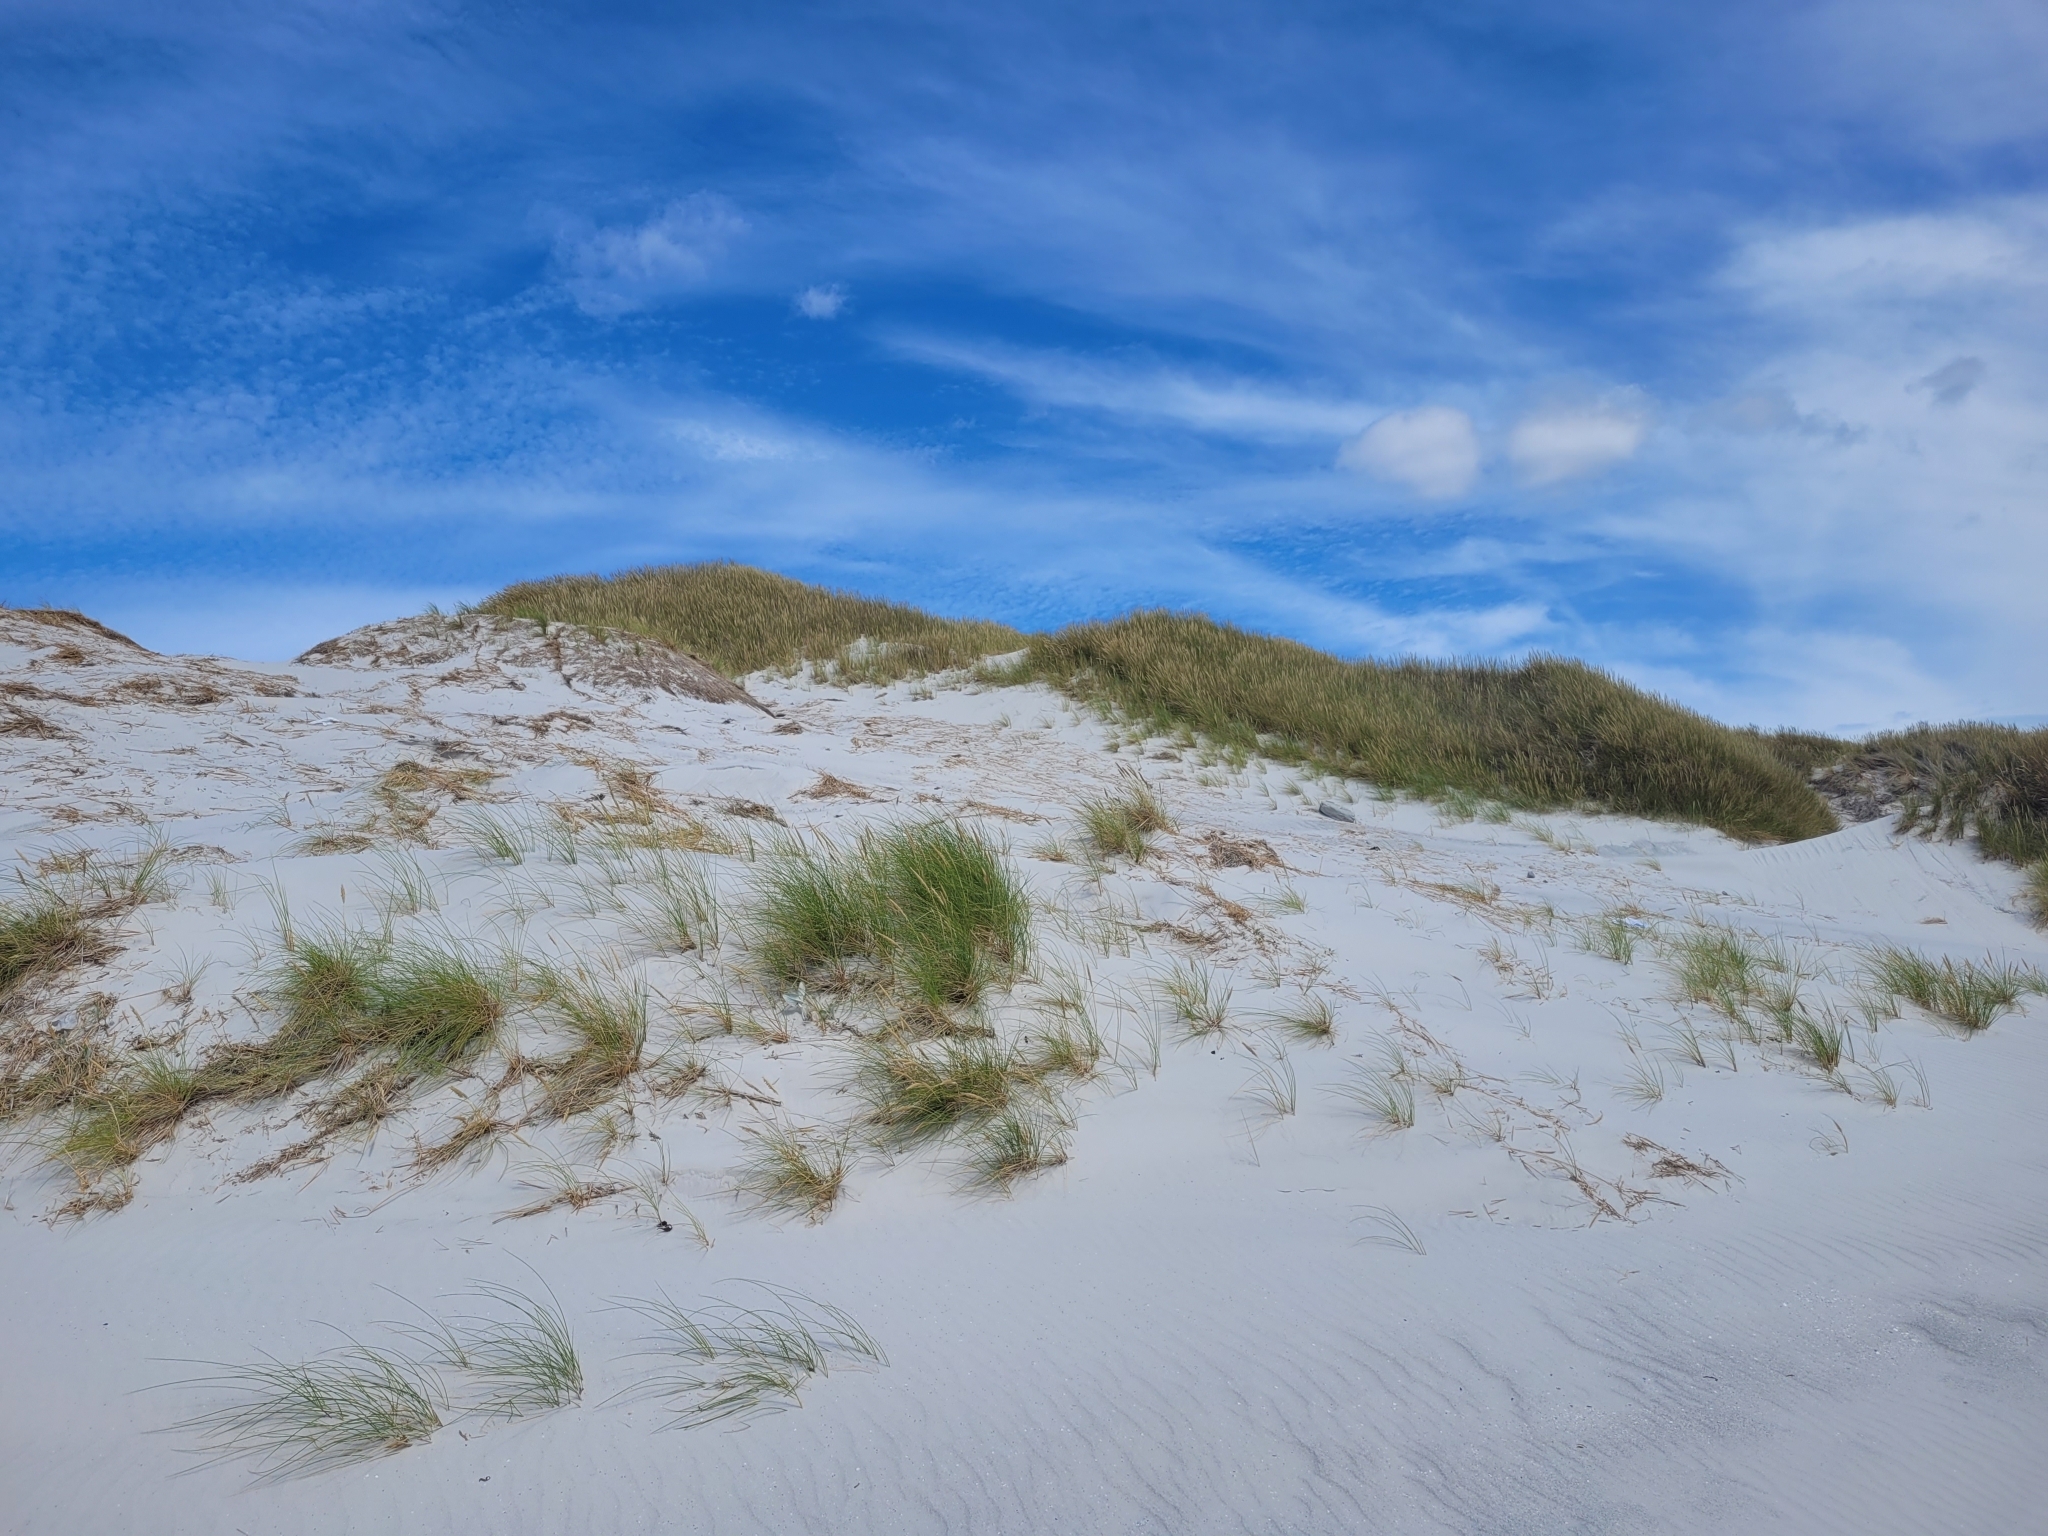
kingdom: Plantae
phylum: Tracheophyta
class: Liliopsida
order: Poales
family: Poaceae
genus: Calamagrostis
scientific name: Calamagrostis arenaria
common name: European beachgrass
